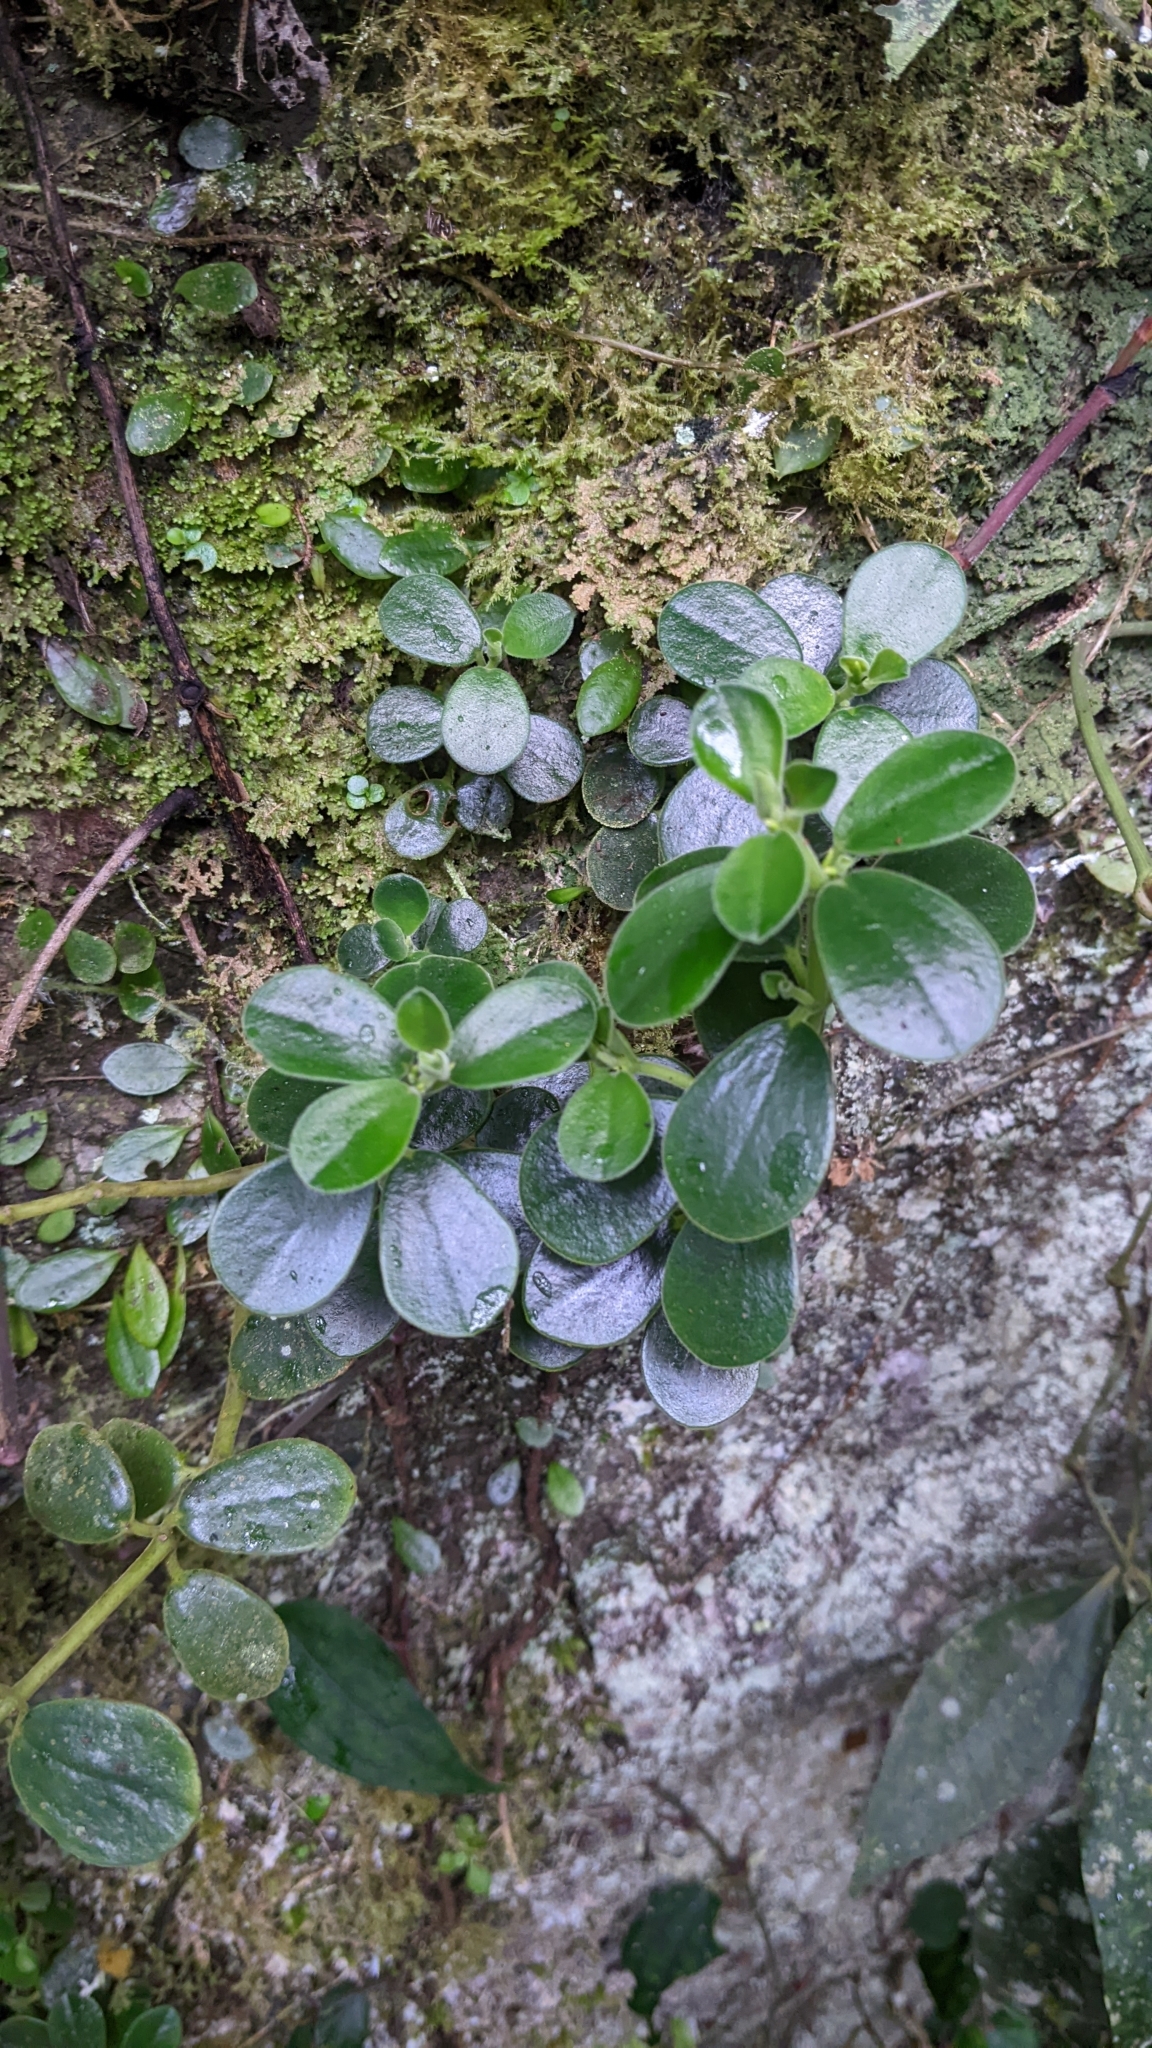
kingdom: Plantae
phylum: Tracheophyta
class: Magnoliopsida
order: Piperales
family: Piperaceae
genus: Peperomia
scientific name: Peperomia japonica
